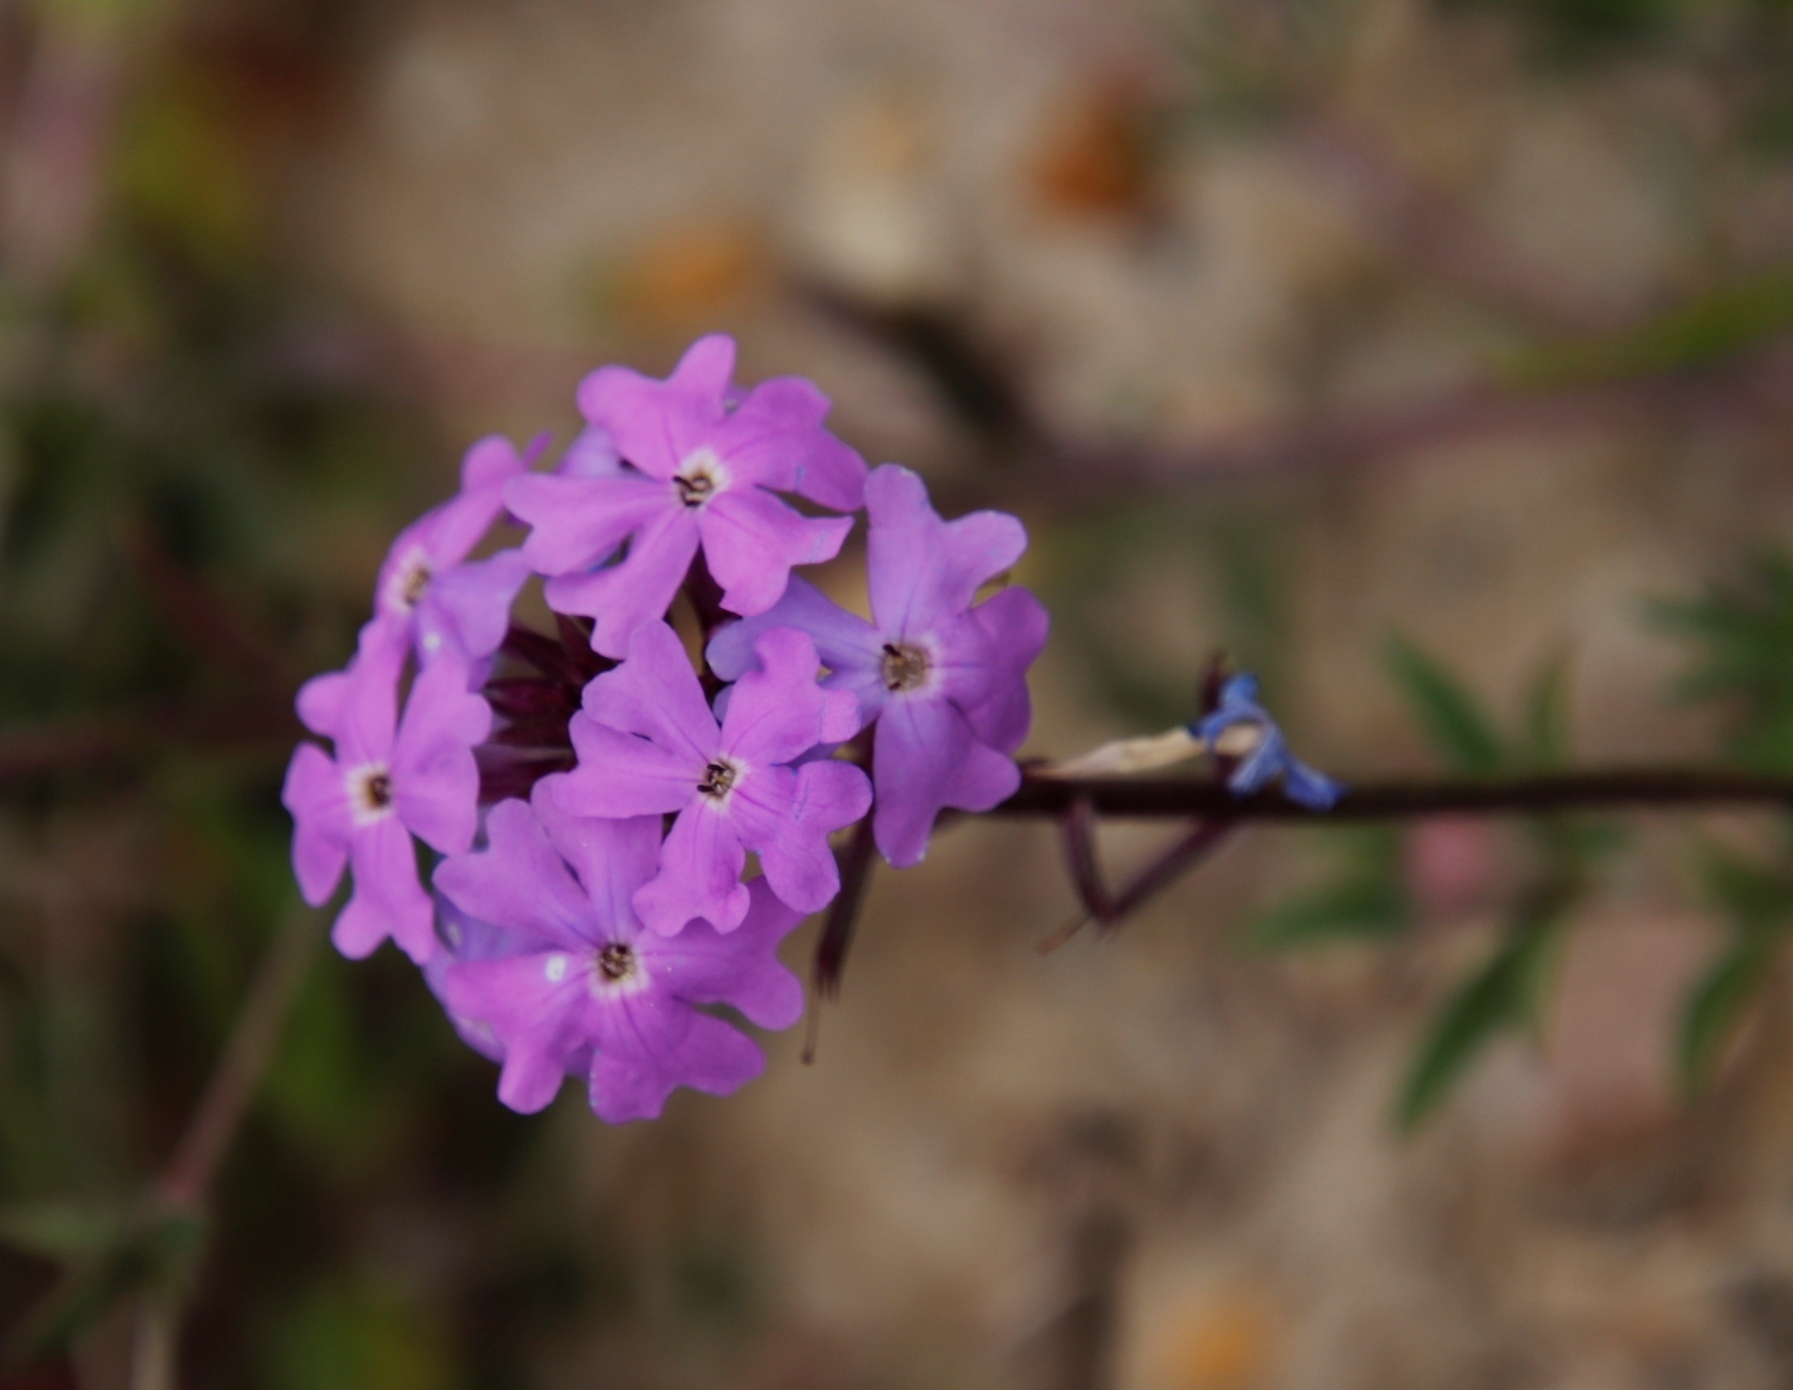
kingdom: Plantae
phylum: Tracheophyta
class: Magnoliopsida
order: Lamiales
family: Verbenaceae
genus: Verbena
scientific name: Verbena aristigera
